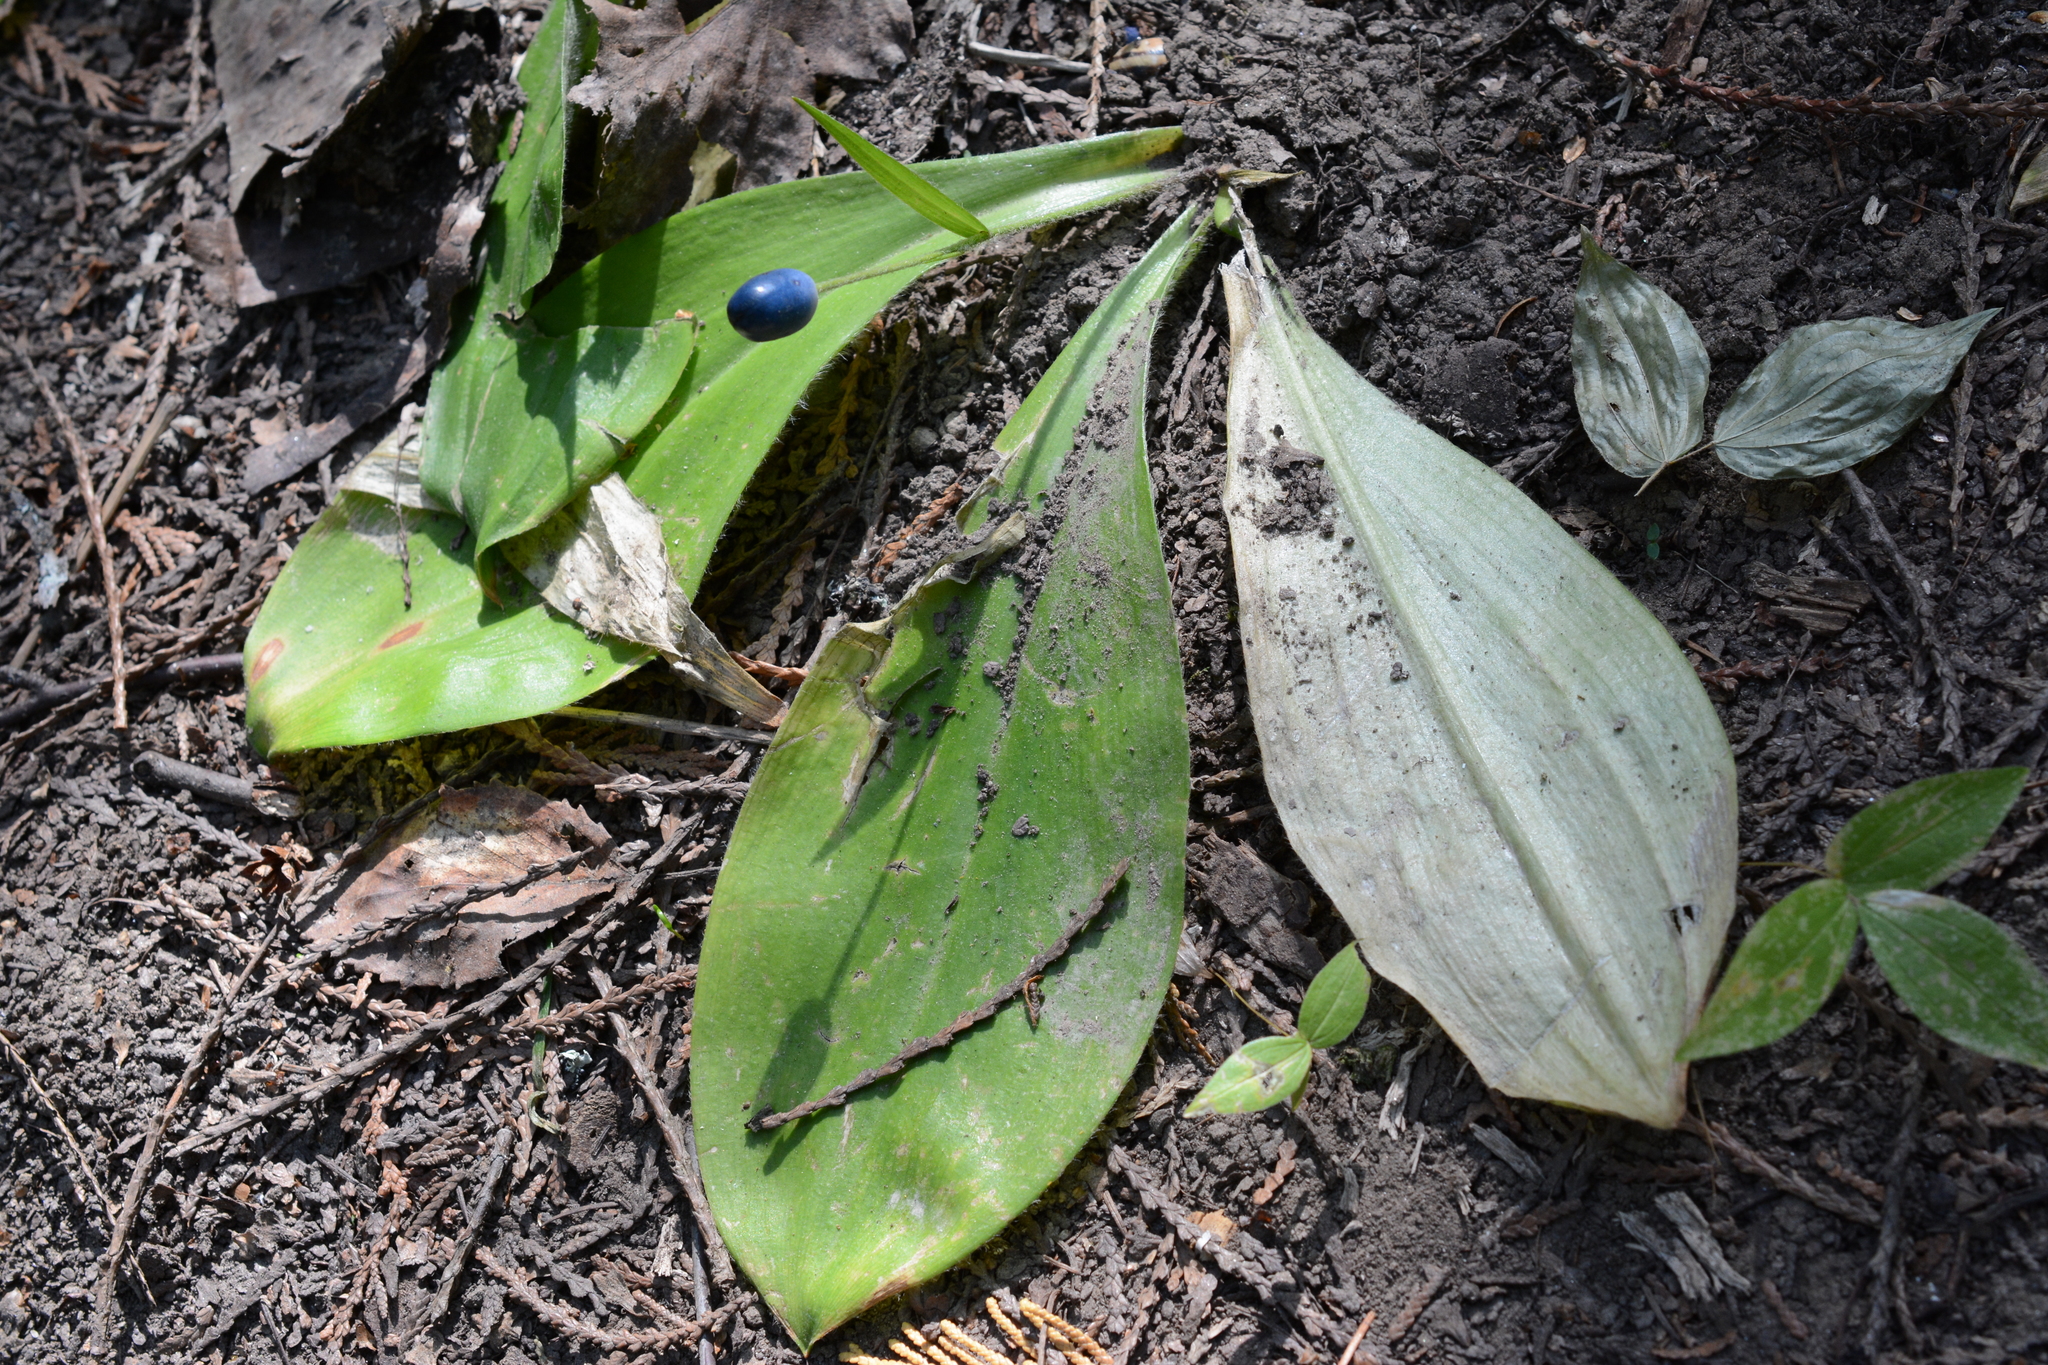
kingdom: Plantae
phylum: Tracheophyta
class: Liliopsida
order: Liliales
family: Liliaceae
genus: Clintonia
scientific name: Clintonia uniflora
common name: Queen's cup
